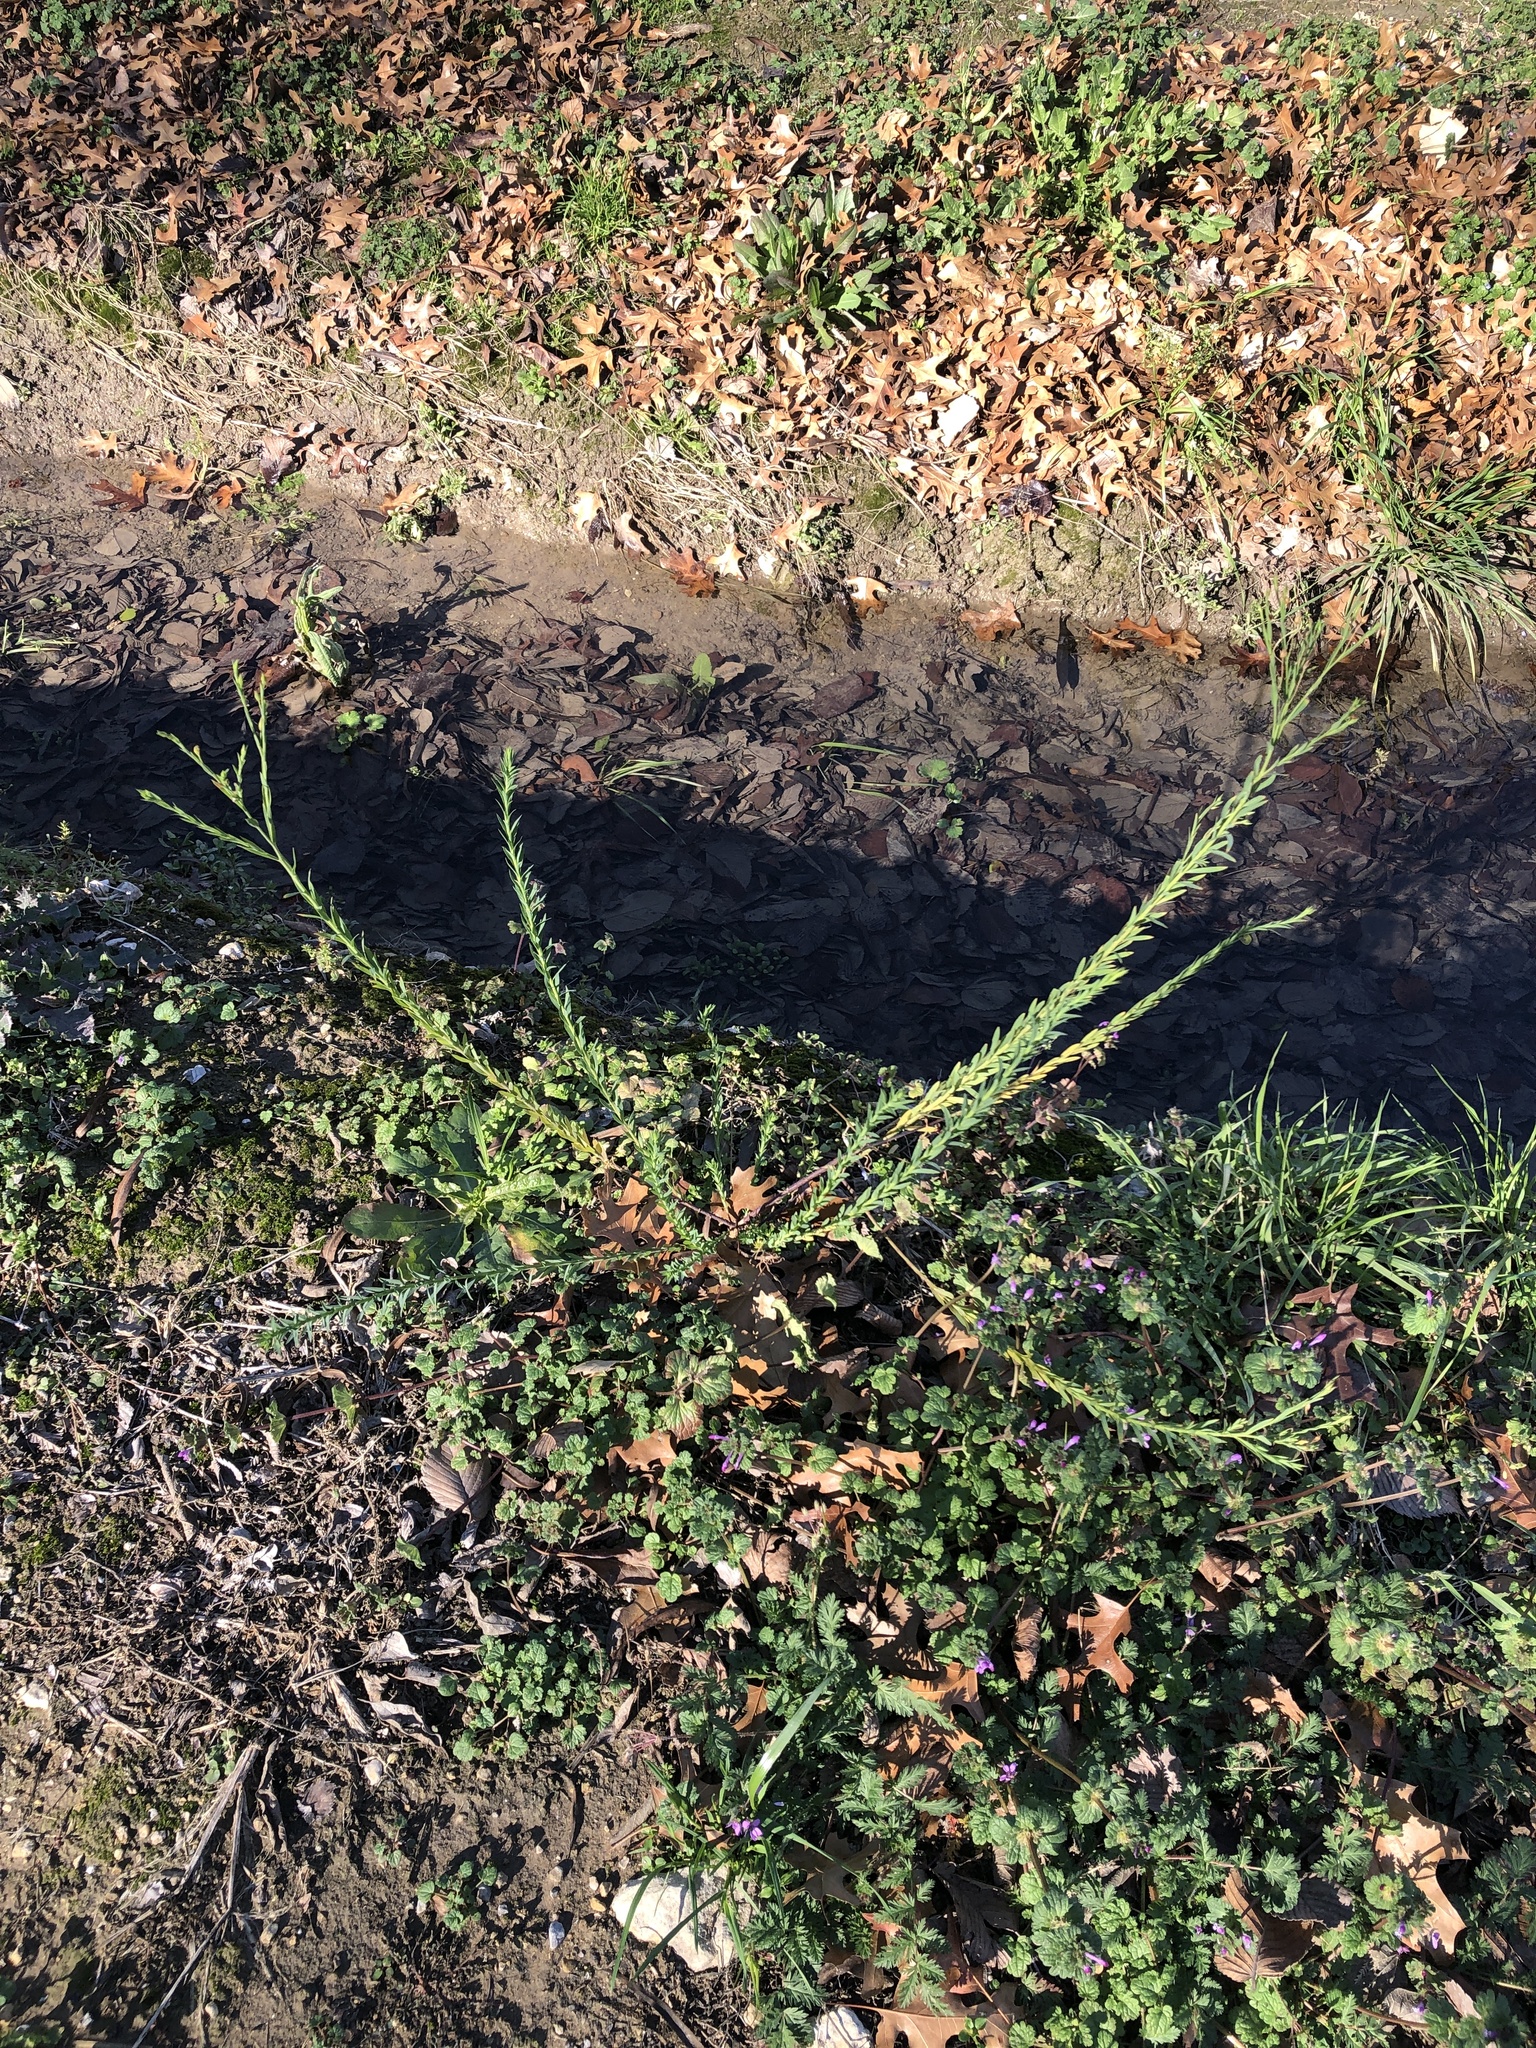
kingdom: Plantae
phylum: Tracheophyta
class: Magnoliopsida
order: Malpighiales
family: Linaceae
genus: Linum
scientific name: Linum usitatissimum
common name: Flax
